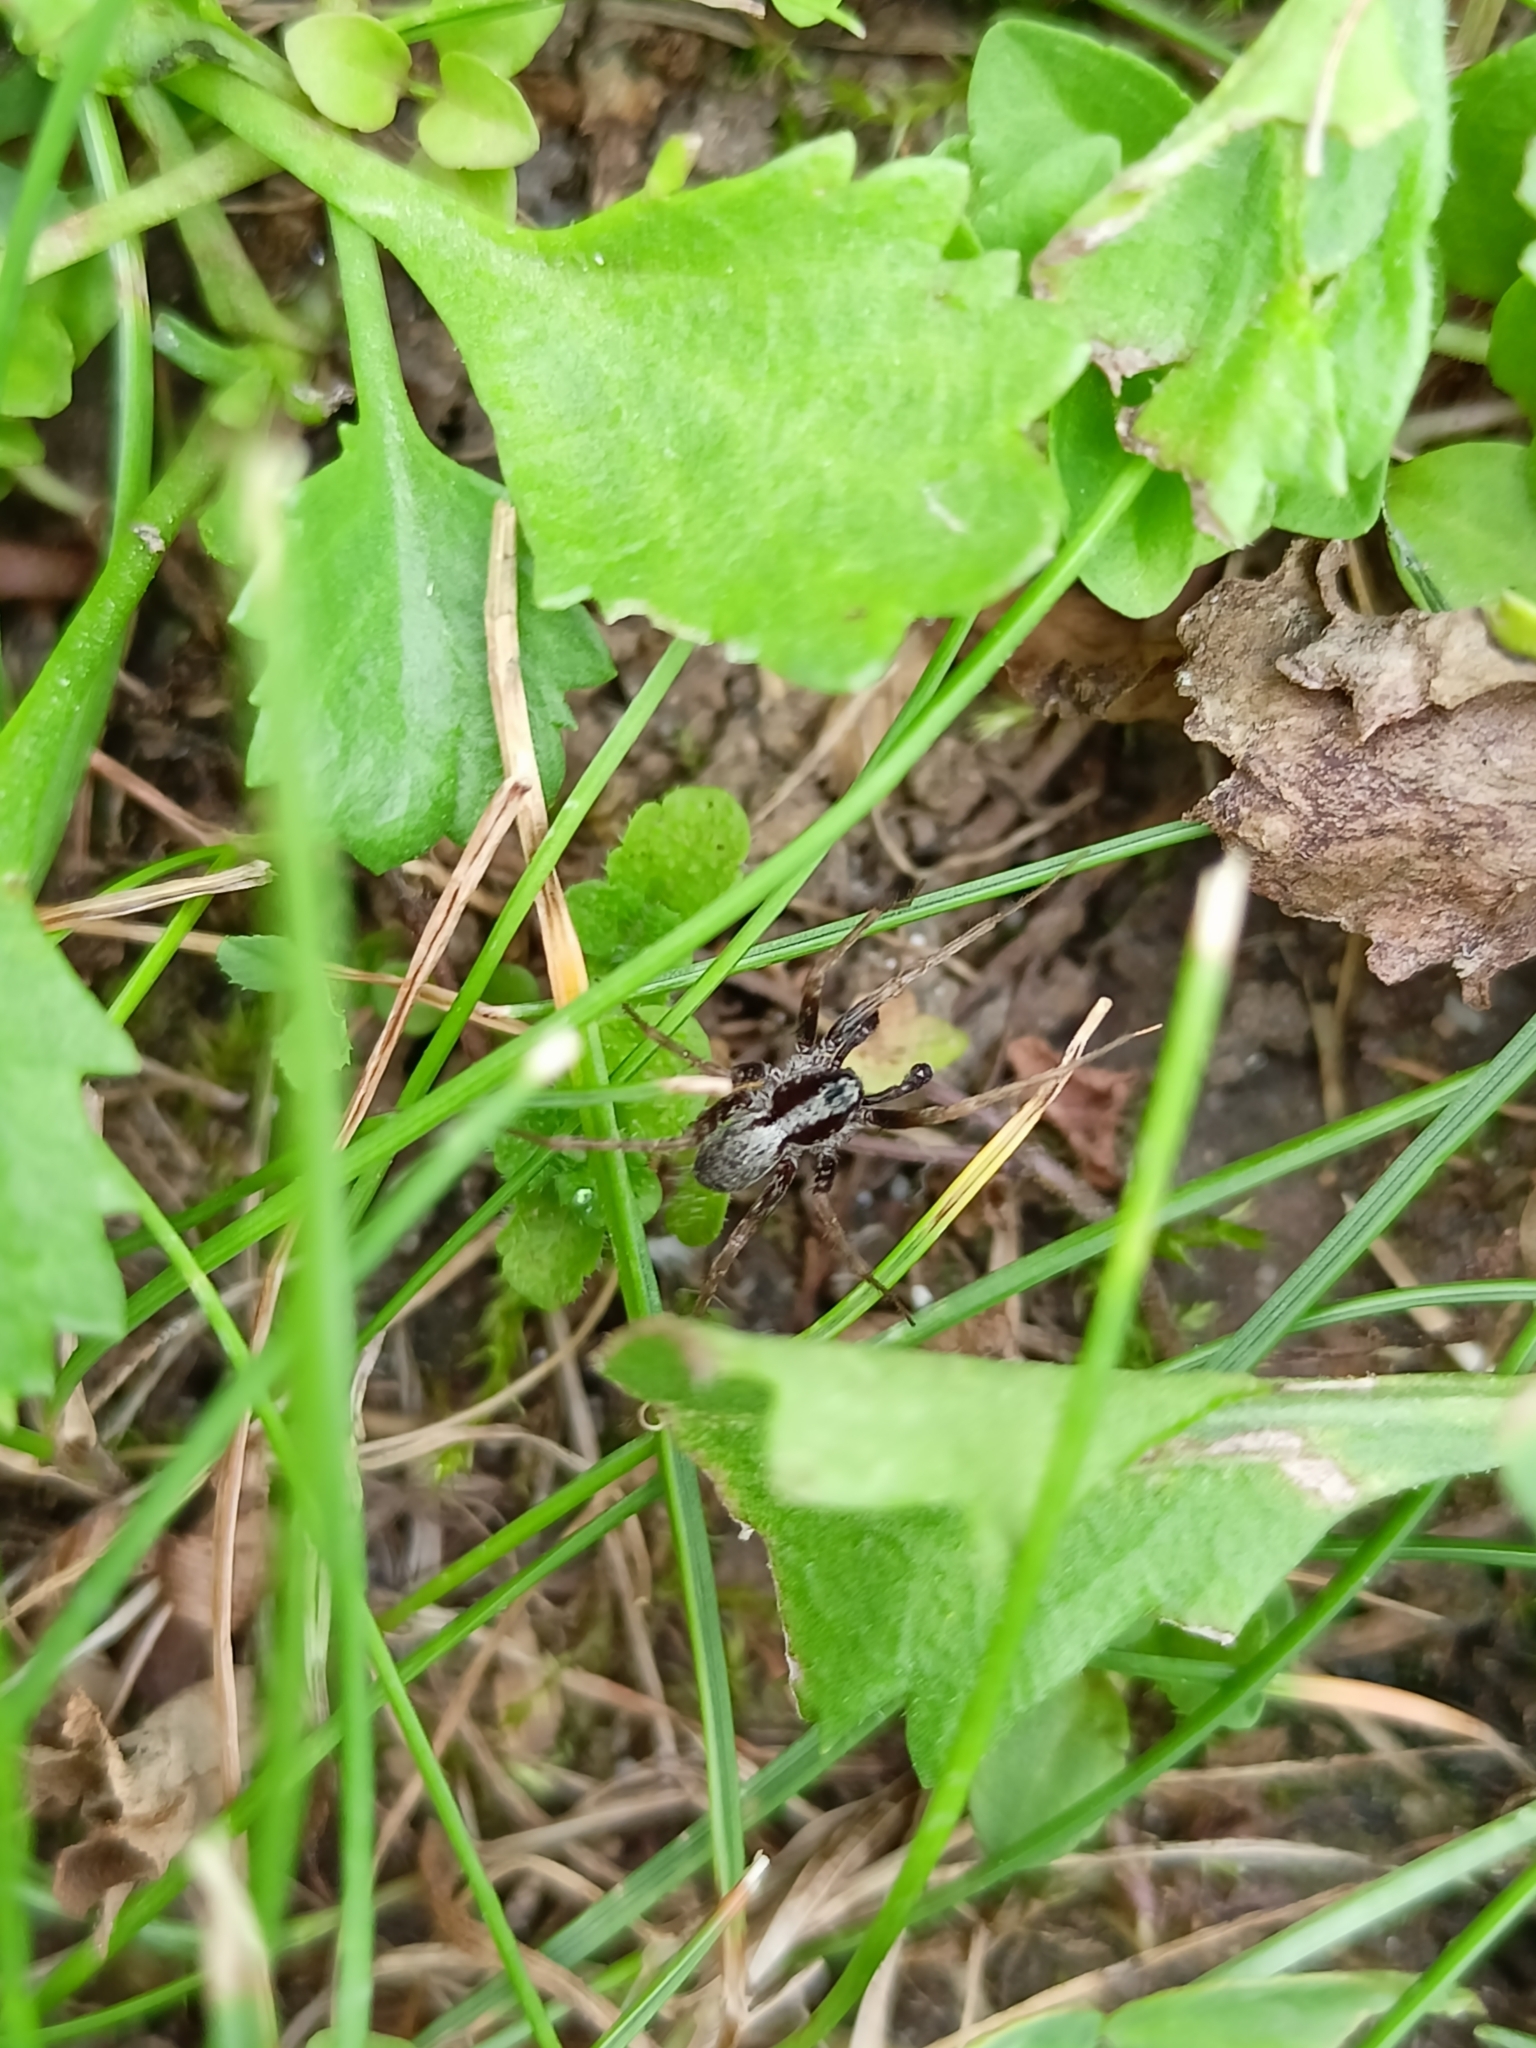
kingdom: Animalia
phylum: Arthropoda
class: Arachnida
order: Araneae
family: Lycosidae
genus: Pardosa
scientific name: Pardosa
